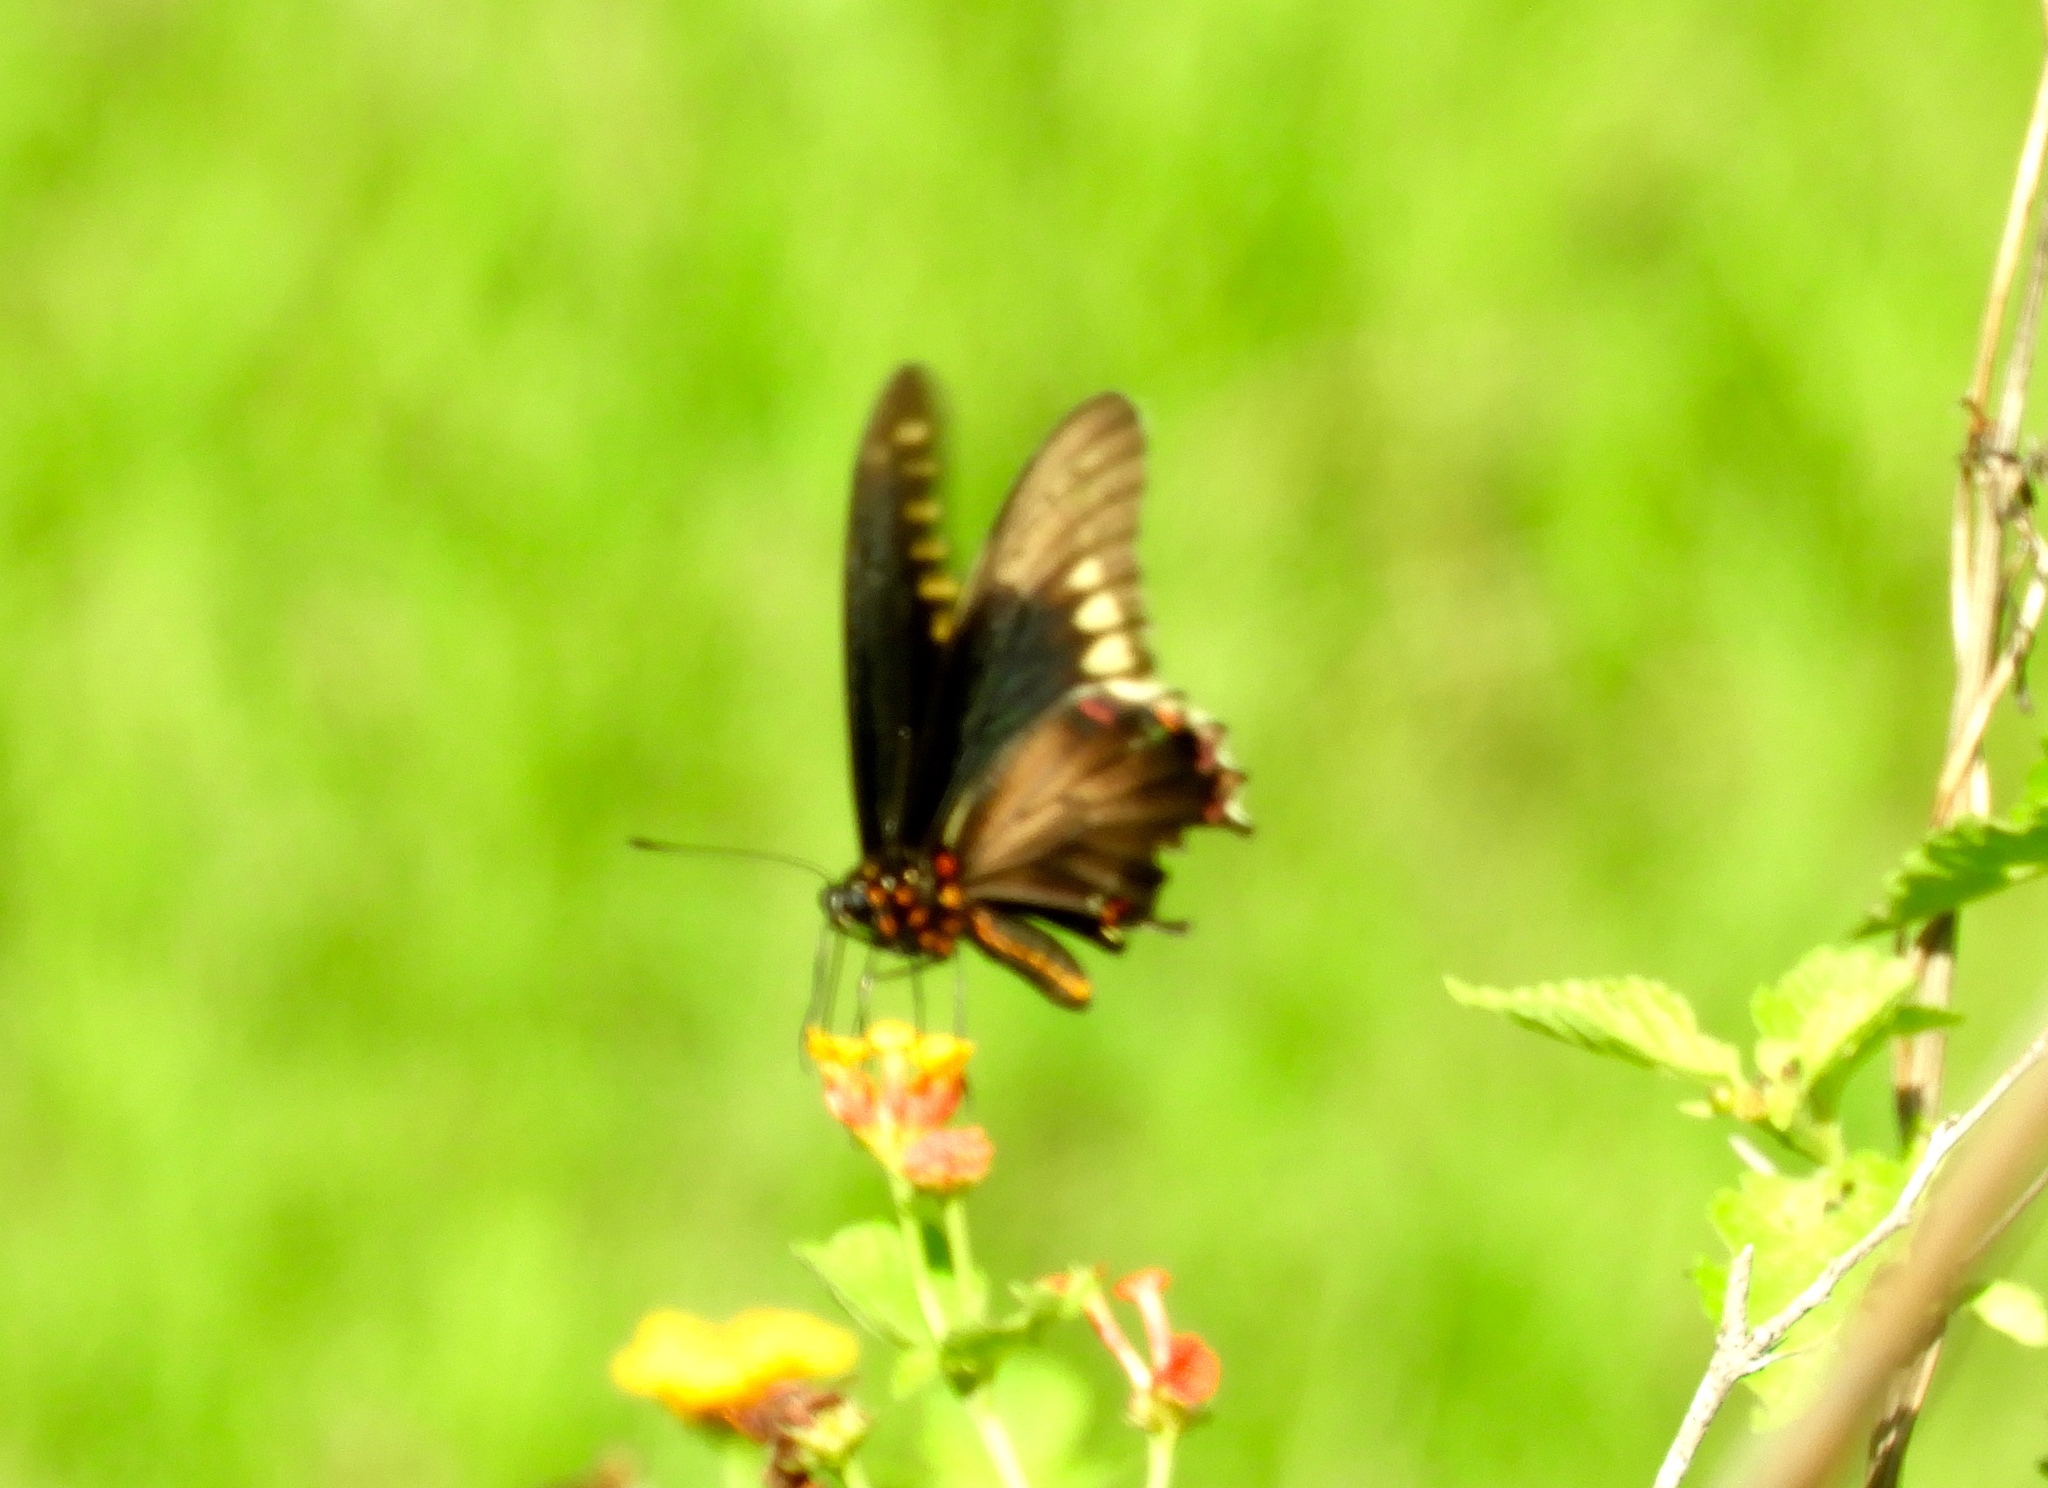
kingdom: Animalia
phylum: Arthropoda
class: Insecta
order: Lepidoptera
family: Papilionidae
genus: Battus
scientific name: Battus polydamas
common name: Polydamas swallowtail
